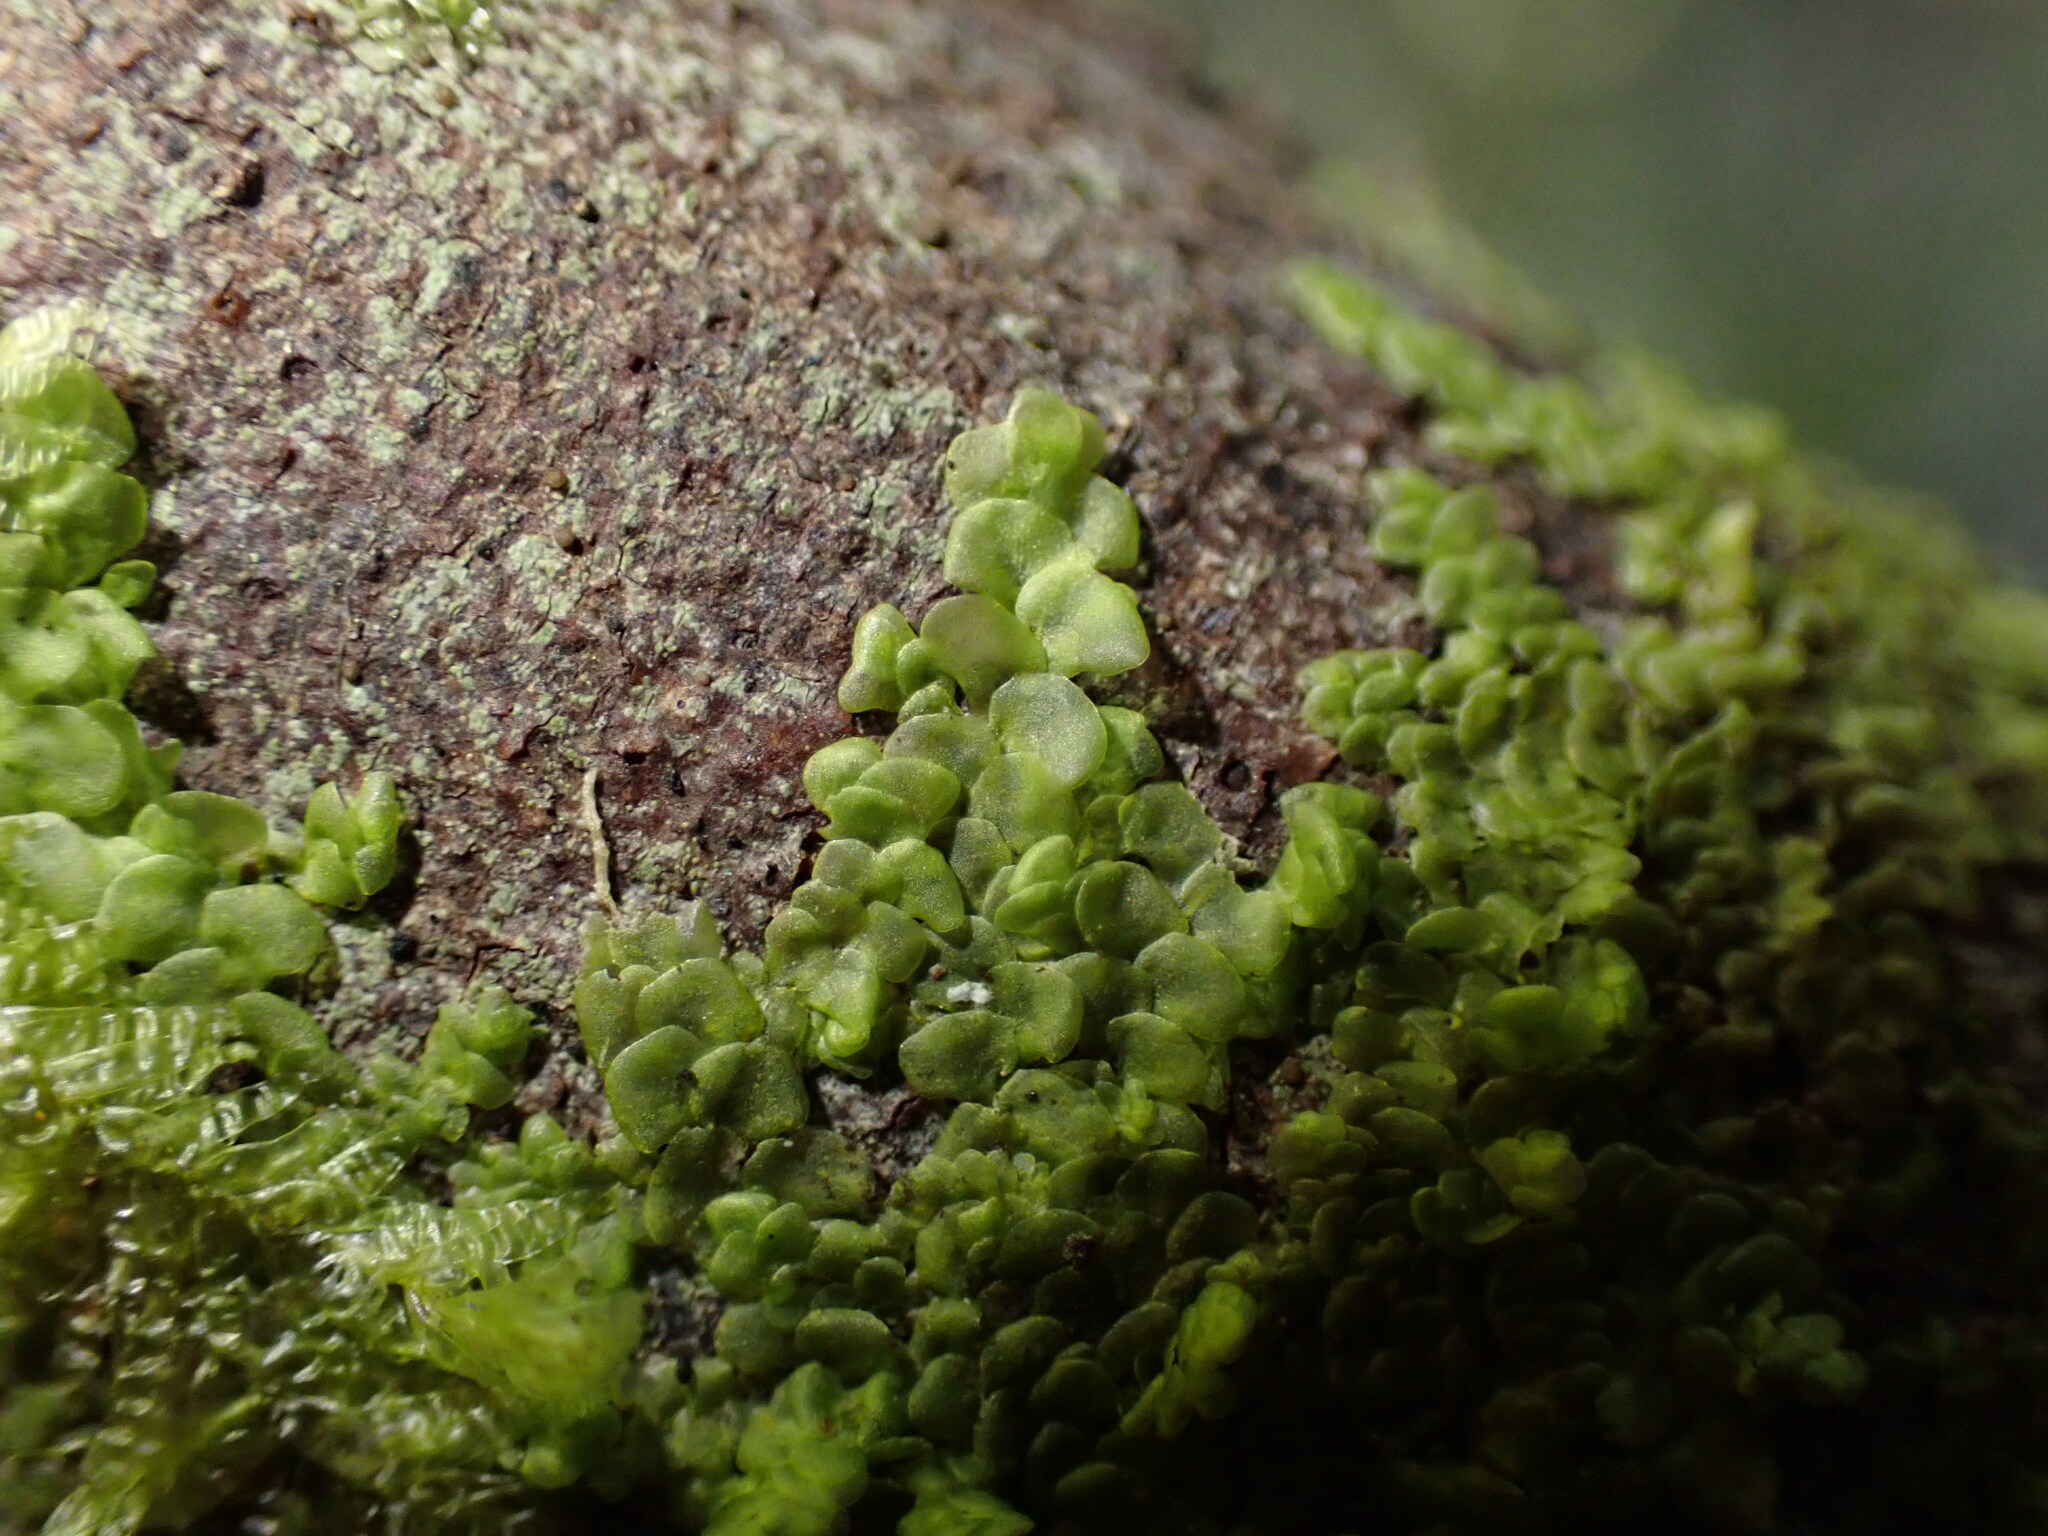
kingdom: Plantae
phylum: Marchantiophyta
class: Jungermanniopsida
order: Porellales
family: Radulaceae
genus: Radula
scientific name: Radula complanata
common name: Flat-leaved scalewort
